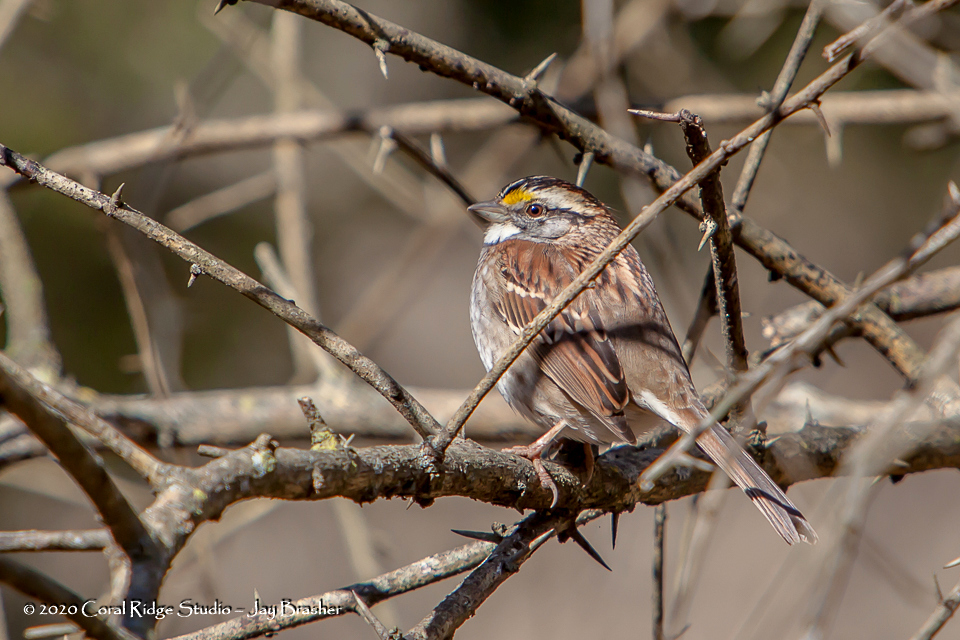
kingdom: Animalia
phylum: Chordata
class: Aves
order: Passeriformes
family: Passerellidae
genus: Zonotrichia
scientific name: Zonotrichia albicollis
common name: White-throated sparrow
